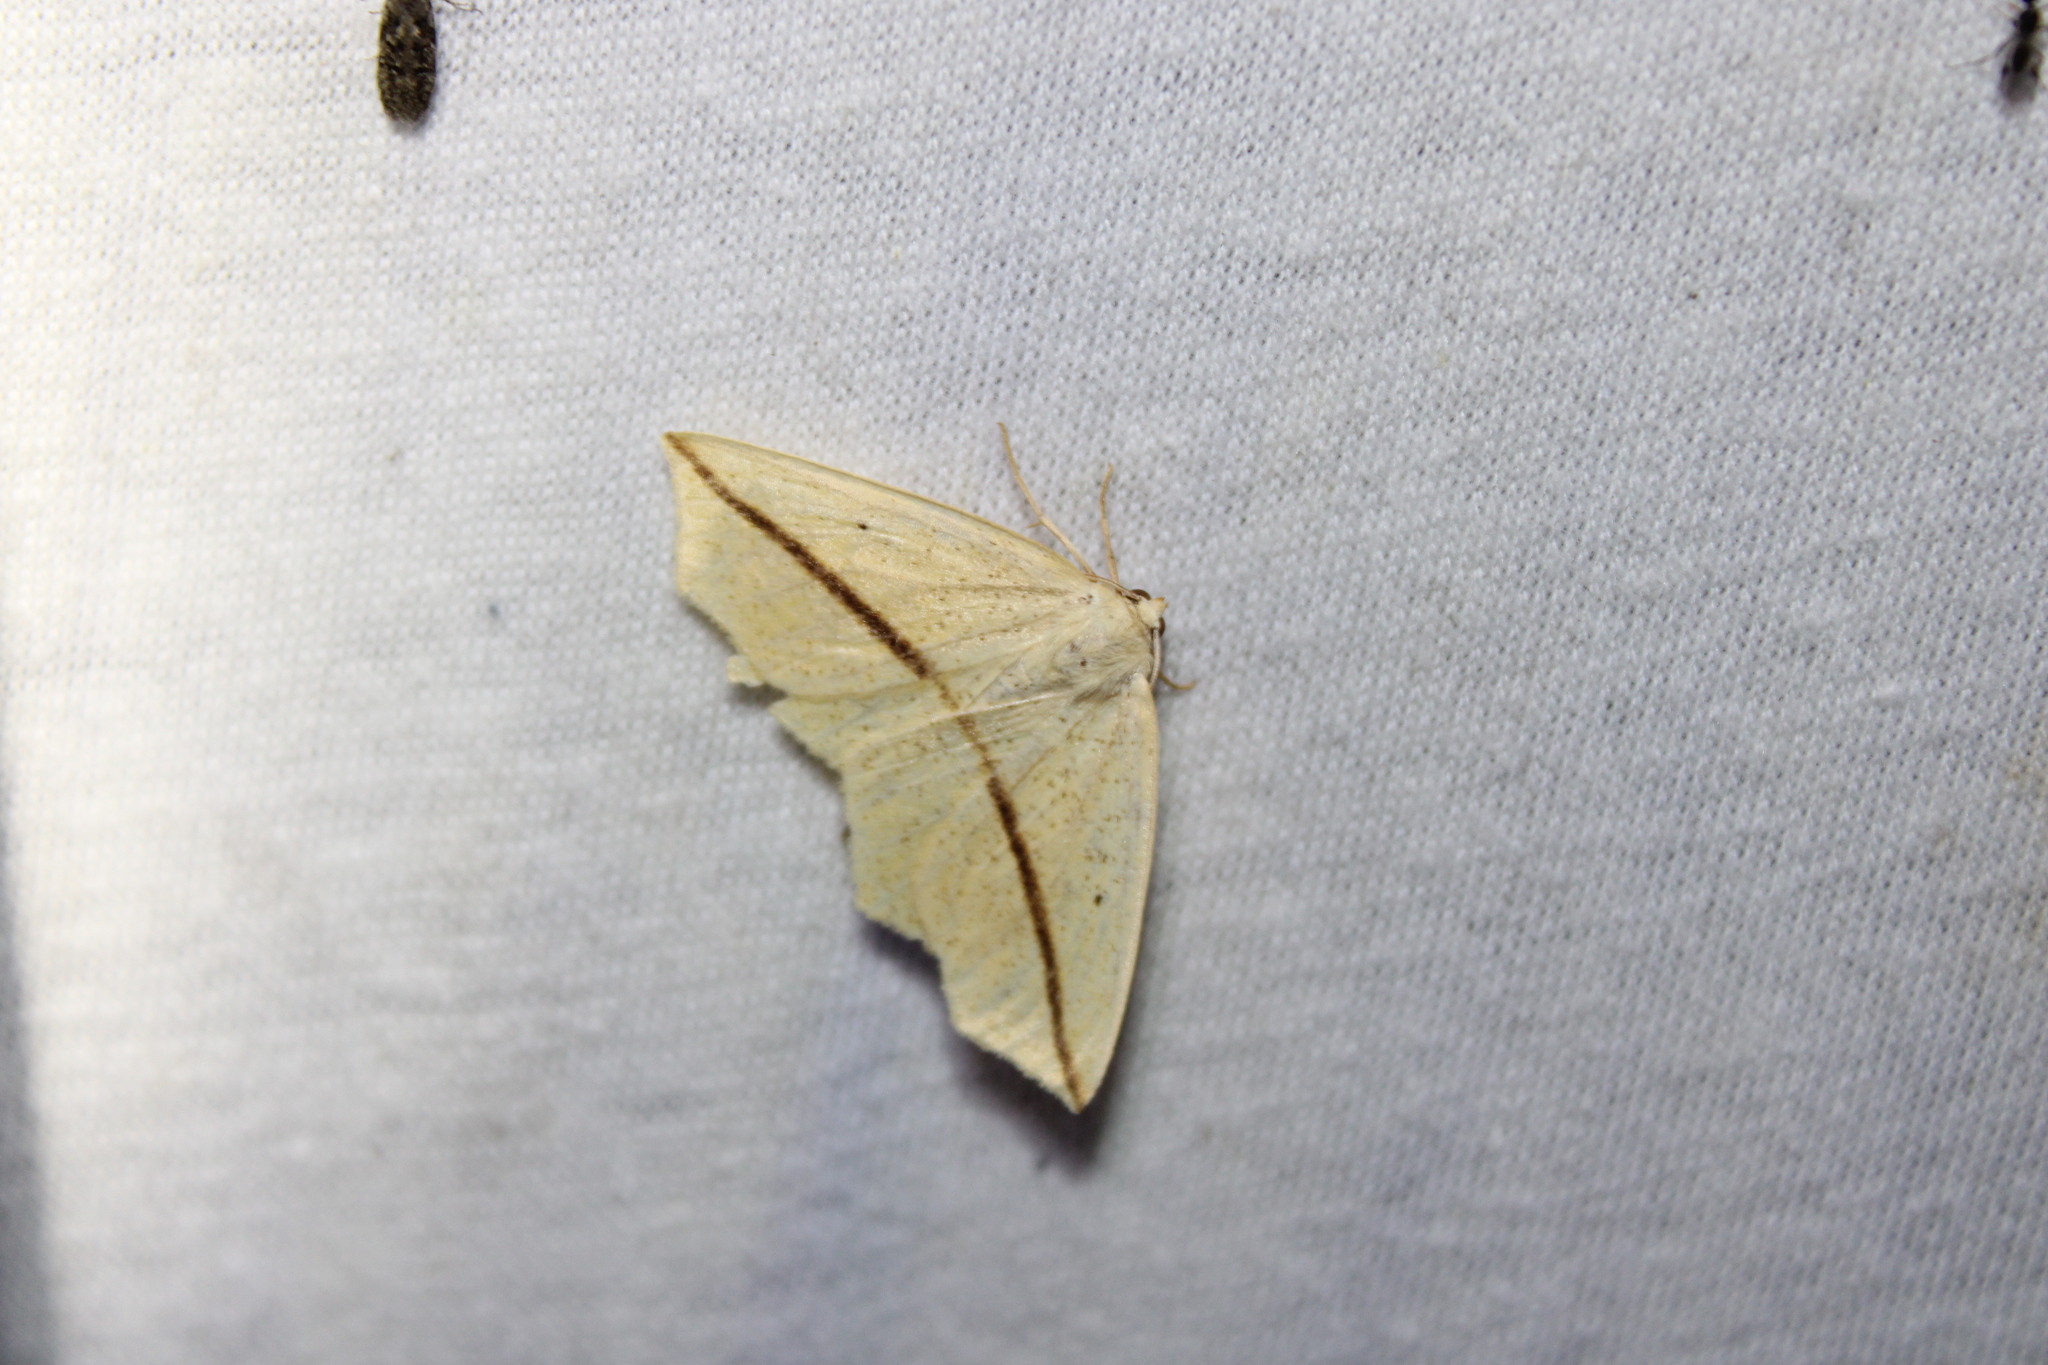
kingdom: Animalia
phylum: Arthropoda
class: Insecta
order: Lepidoptera
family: Geometridae
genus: Tetracis
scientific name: Tetracis crocallata
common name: Yellow slant-line
